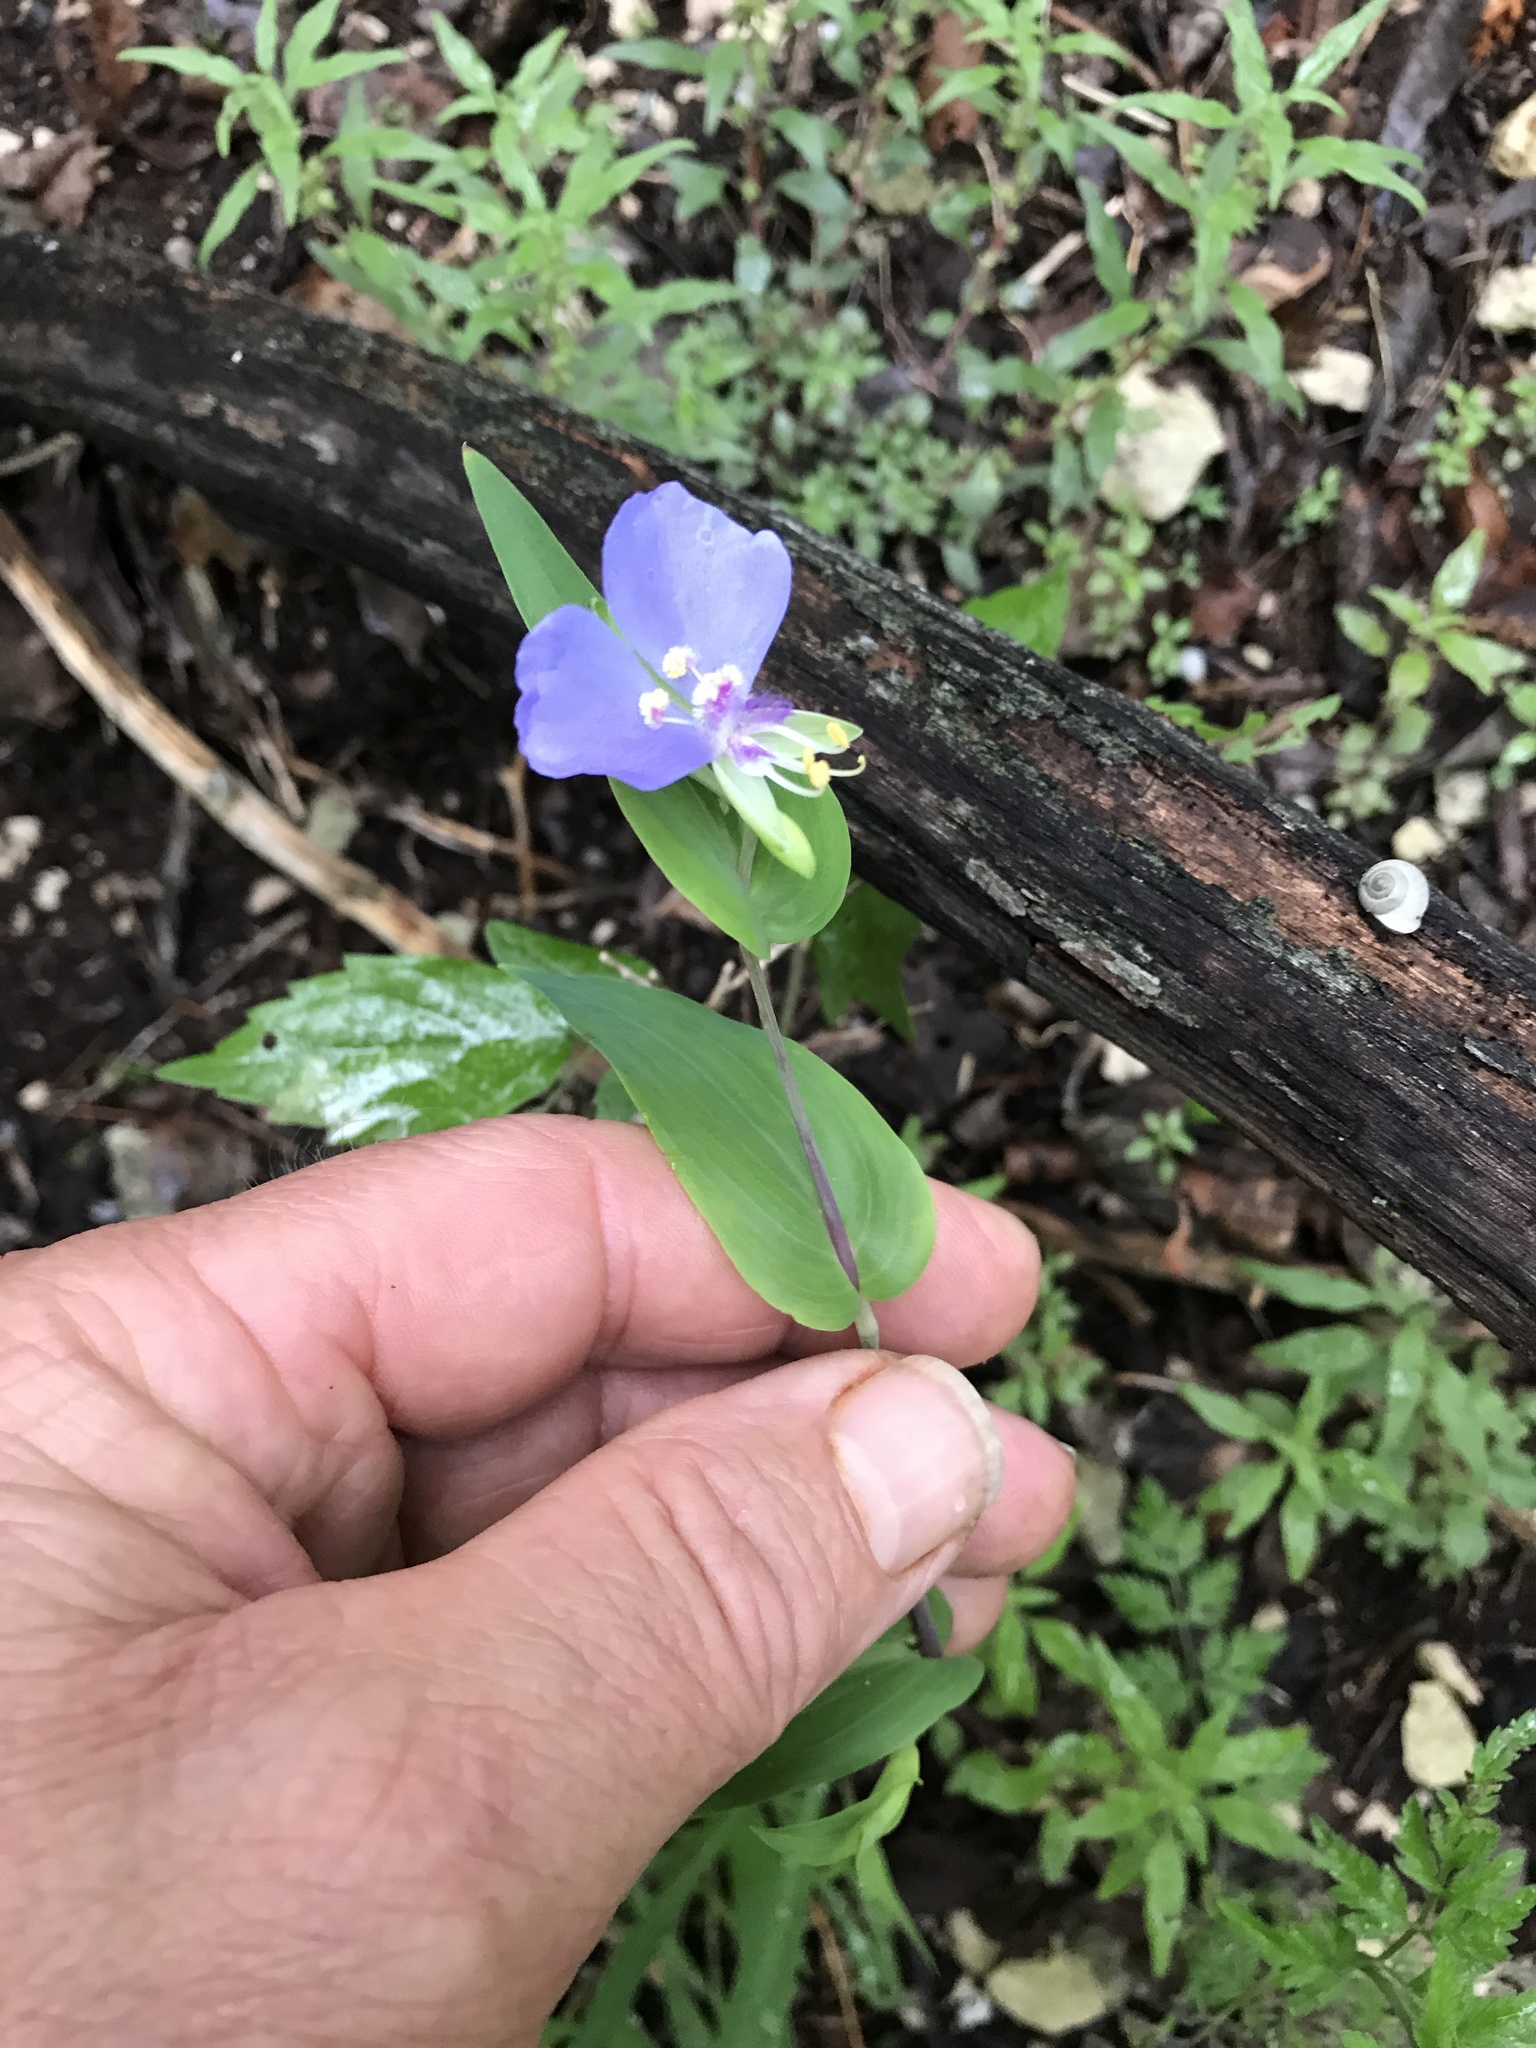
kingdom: Plantae
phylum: Tracheophyta
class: Liliopsida
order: Commelinales
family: Commelinaceae
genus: Tinantia
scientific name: Tinantia anomala
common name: False dayflower
